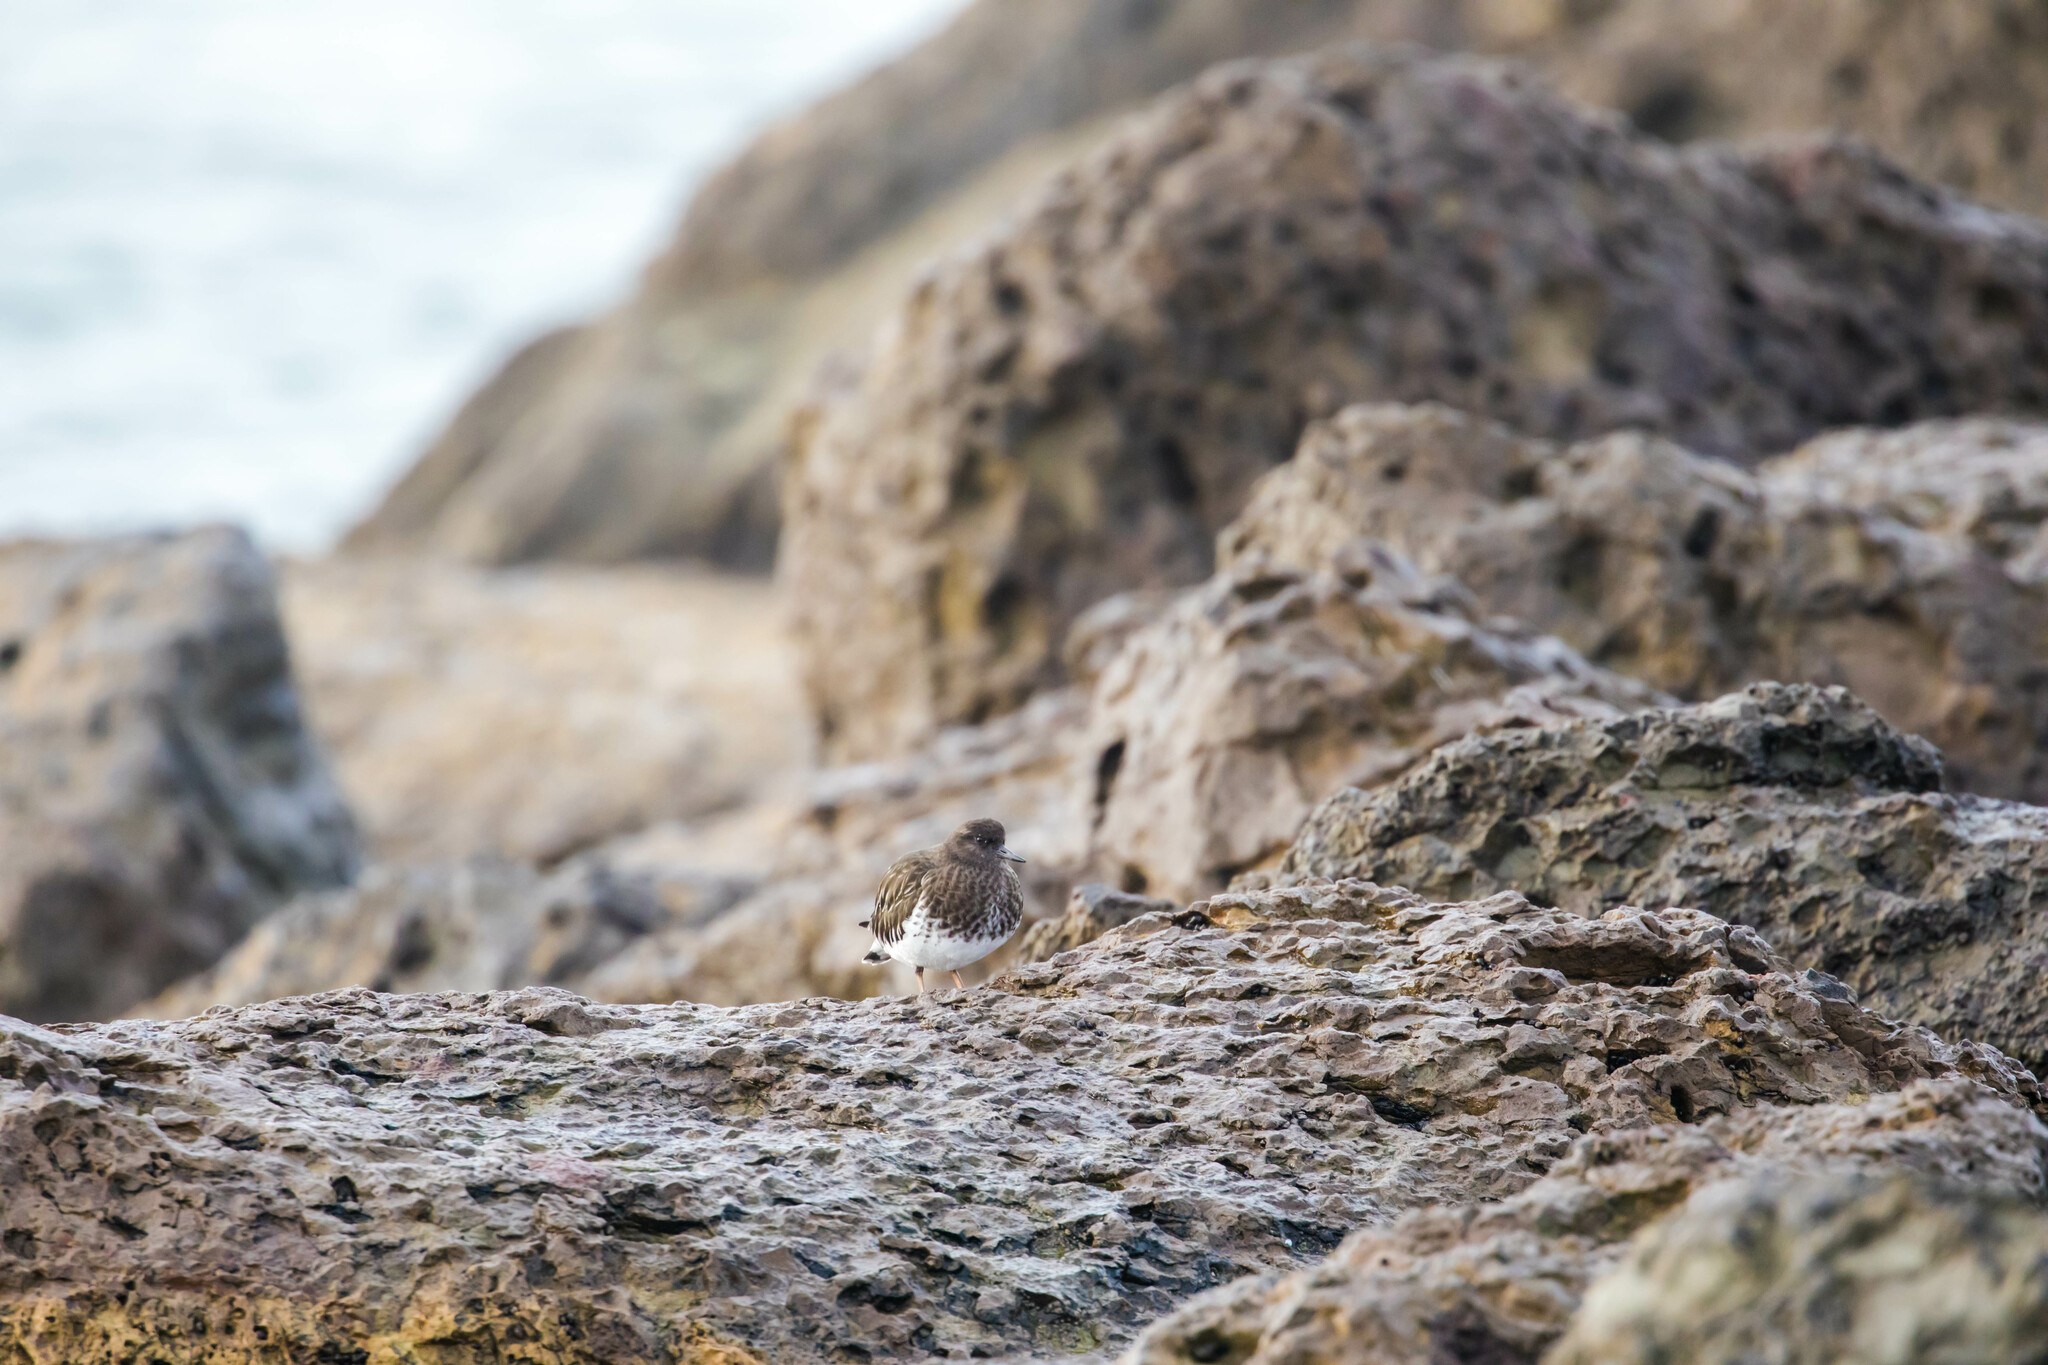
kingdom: Animalia
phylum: Chordata
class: Aves
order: Charadriiformes
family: Scolopacidae
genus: Arenaria
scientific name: Arenaria melanocephala
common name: Black turnstone
